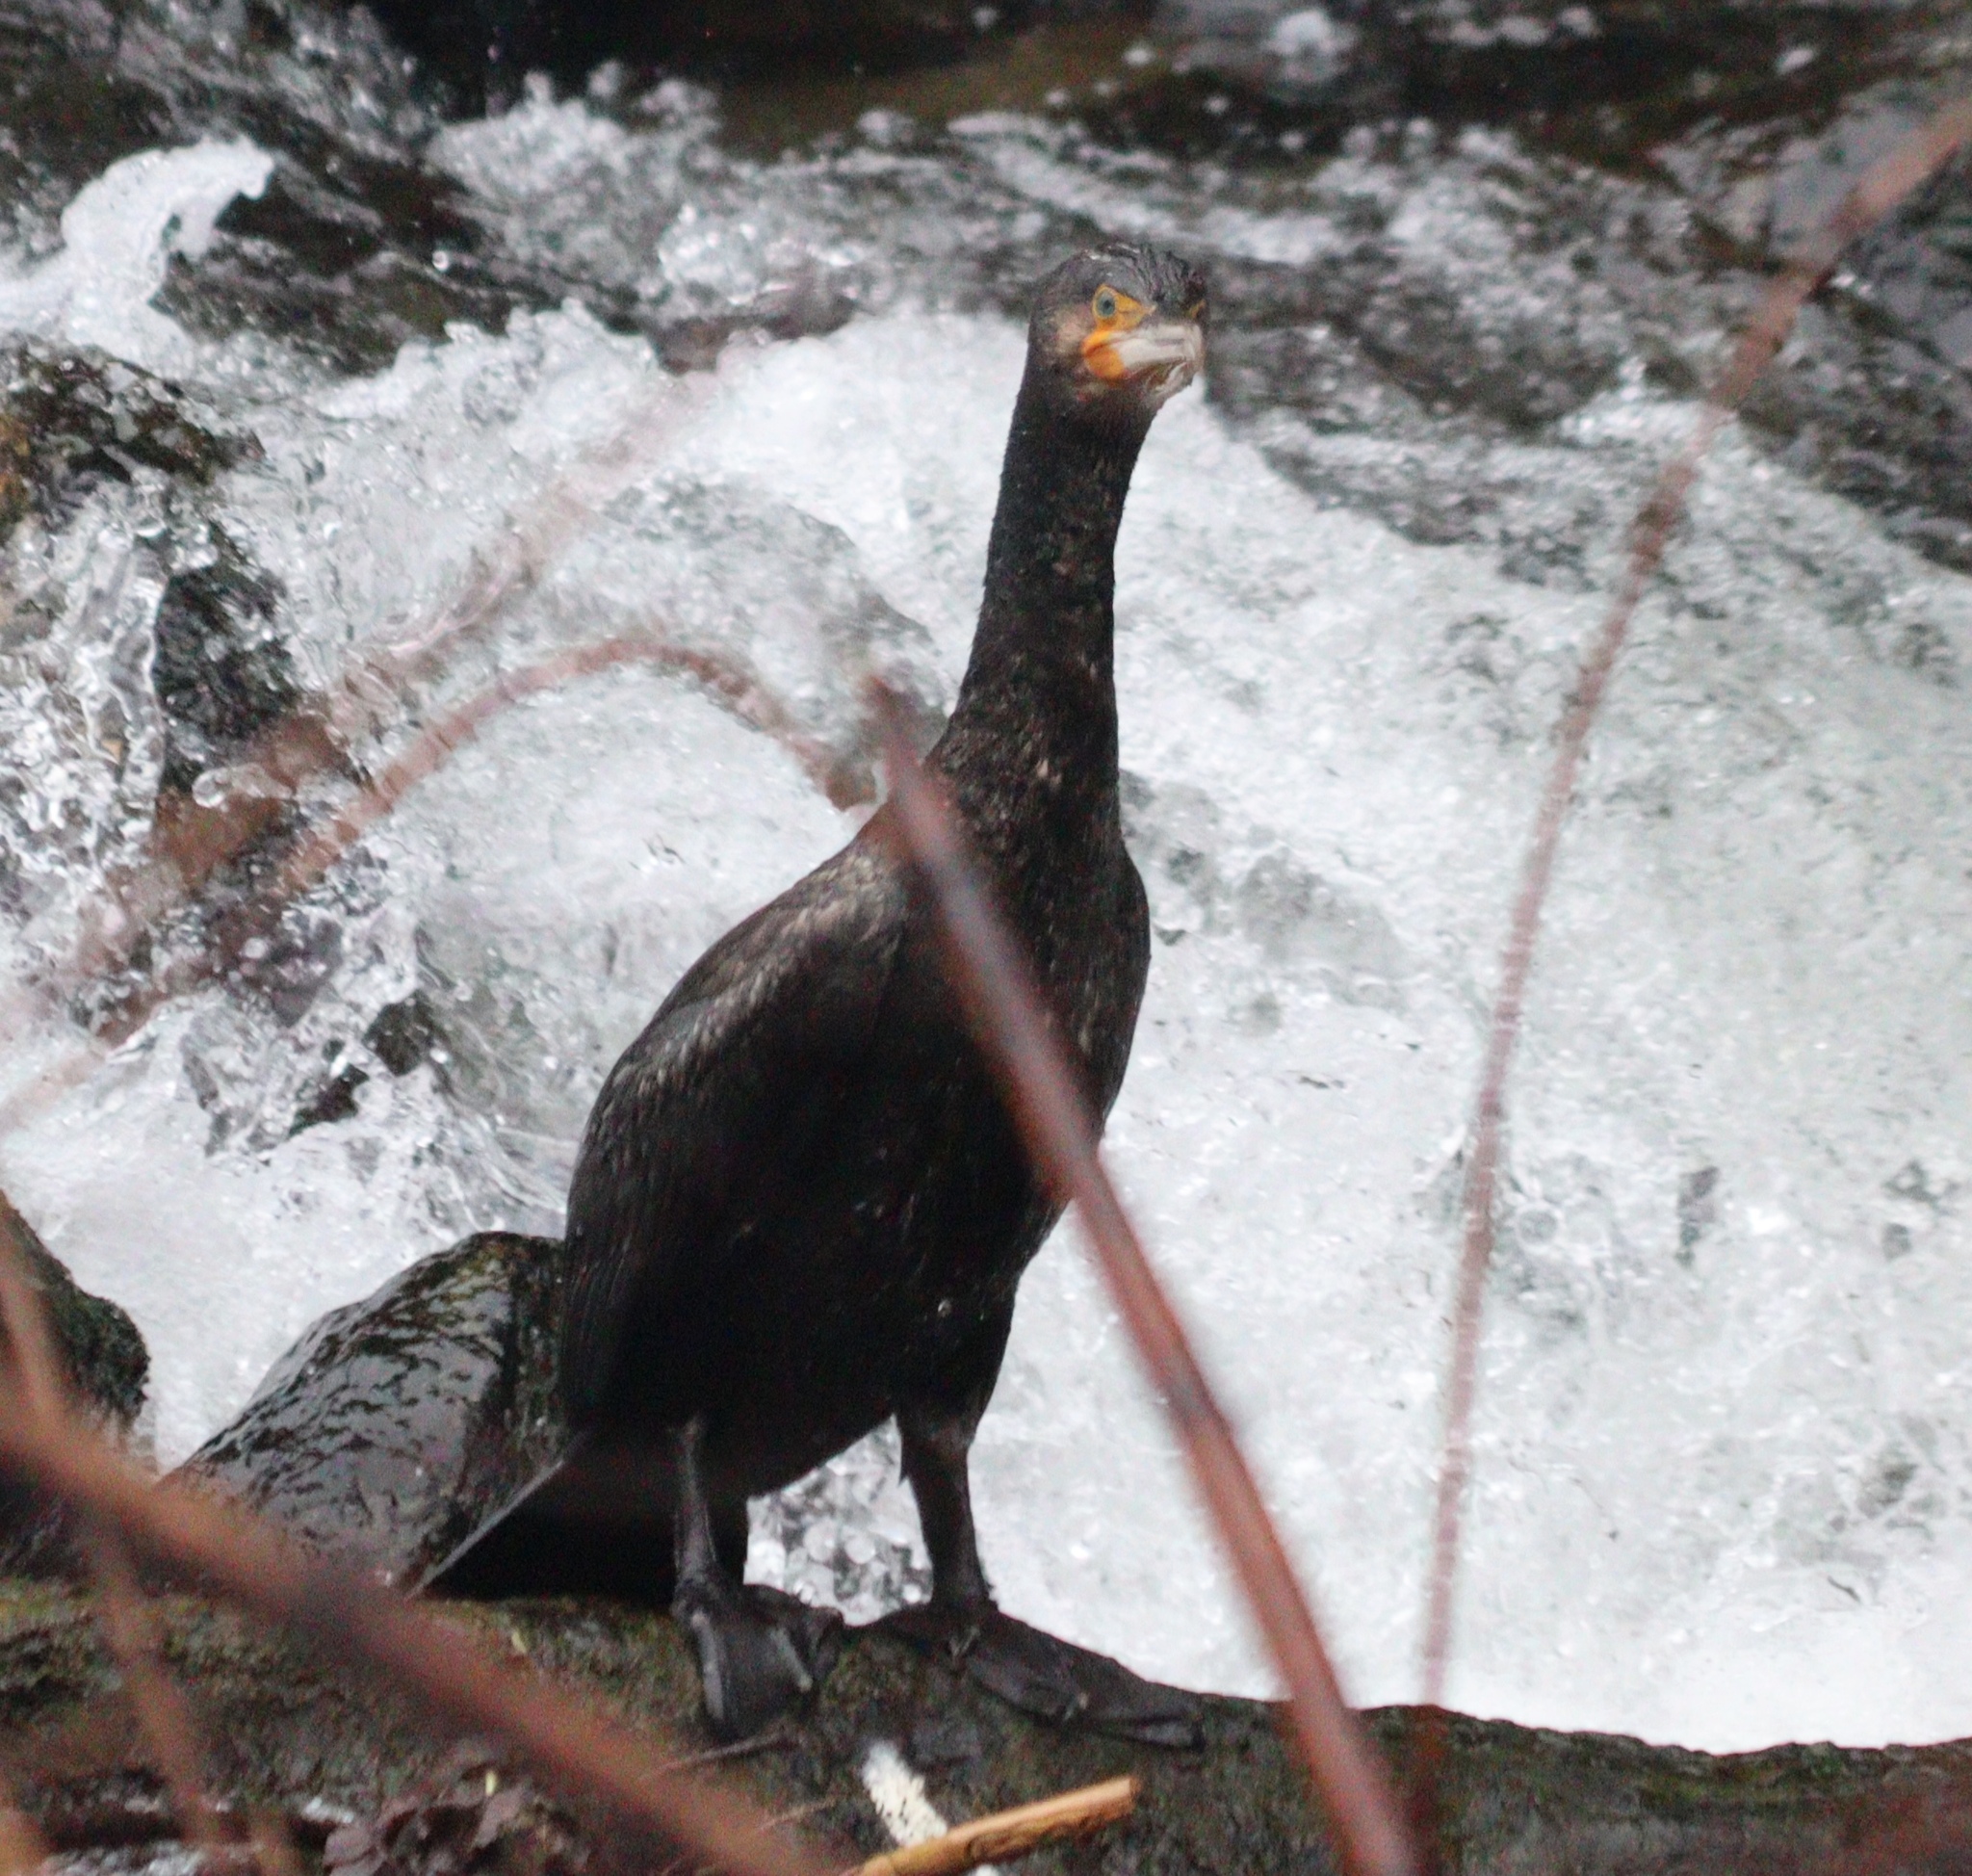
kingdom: Animalia
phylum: Chordata
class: Aves
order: Suliformes
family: Phalacrocoracidae
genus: Phalacrocorax
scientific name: Phalacrocorax carbo
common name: Great cormorant
